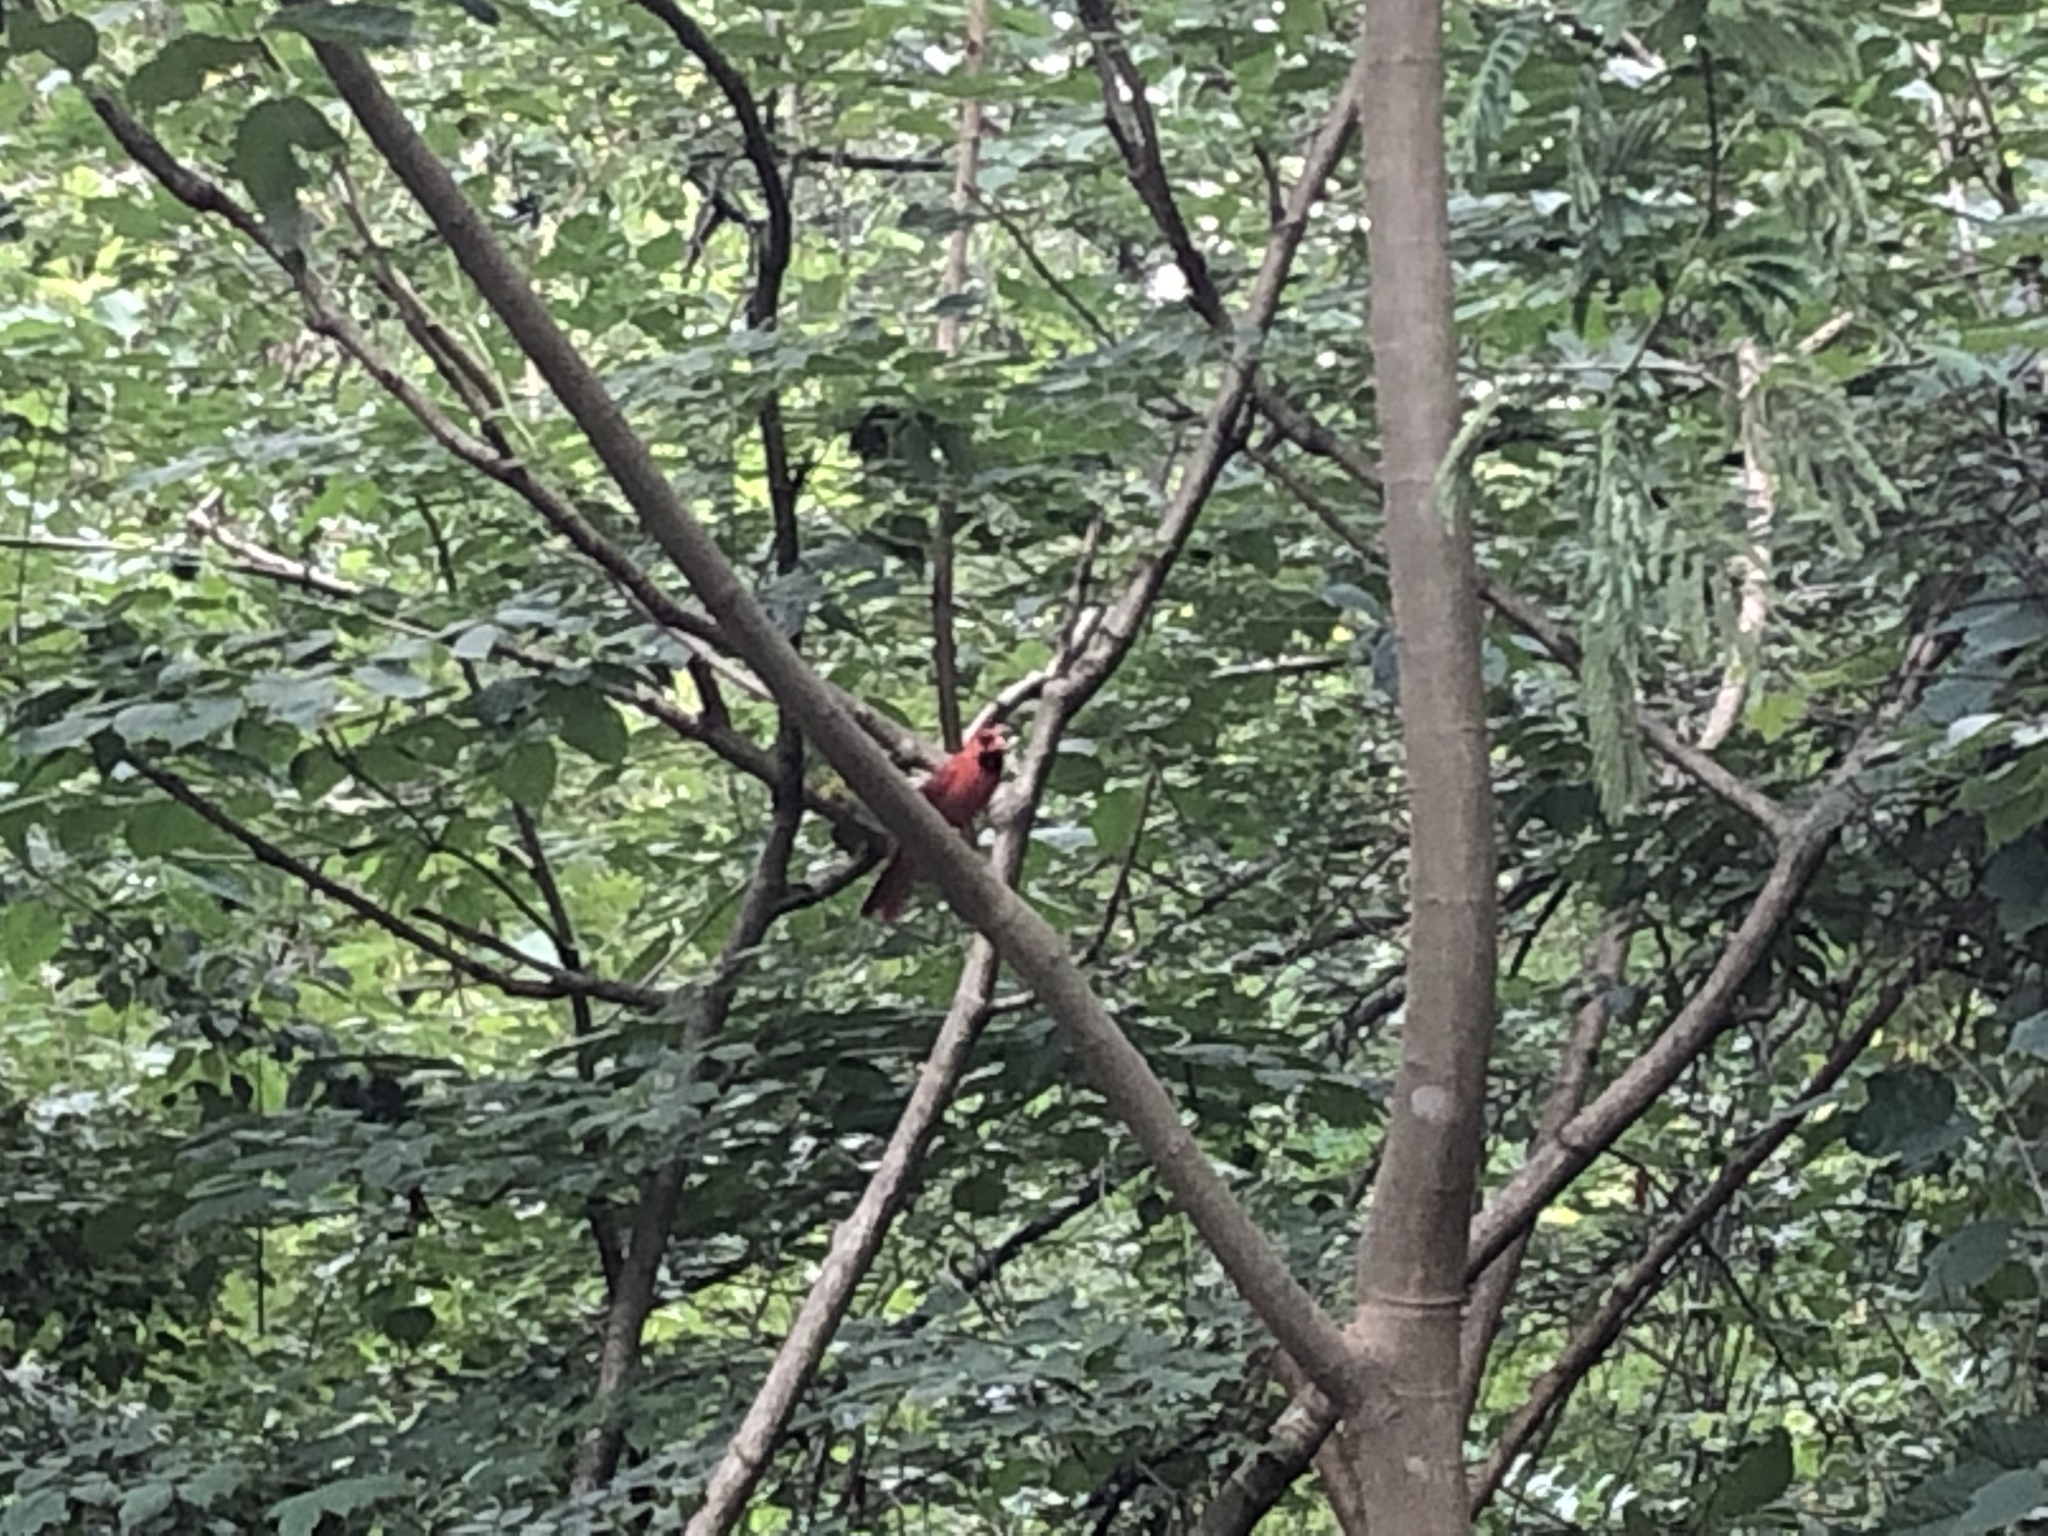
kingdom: Animalia
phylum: Chordata
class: Aves
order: Passeriformes
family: Cardinalidae
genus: Cardinalis
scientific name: Cardinalis cardinalis
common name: Northern cardinal
